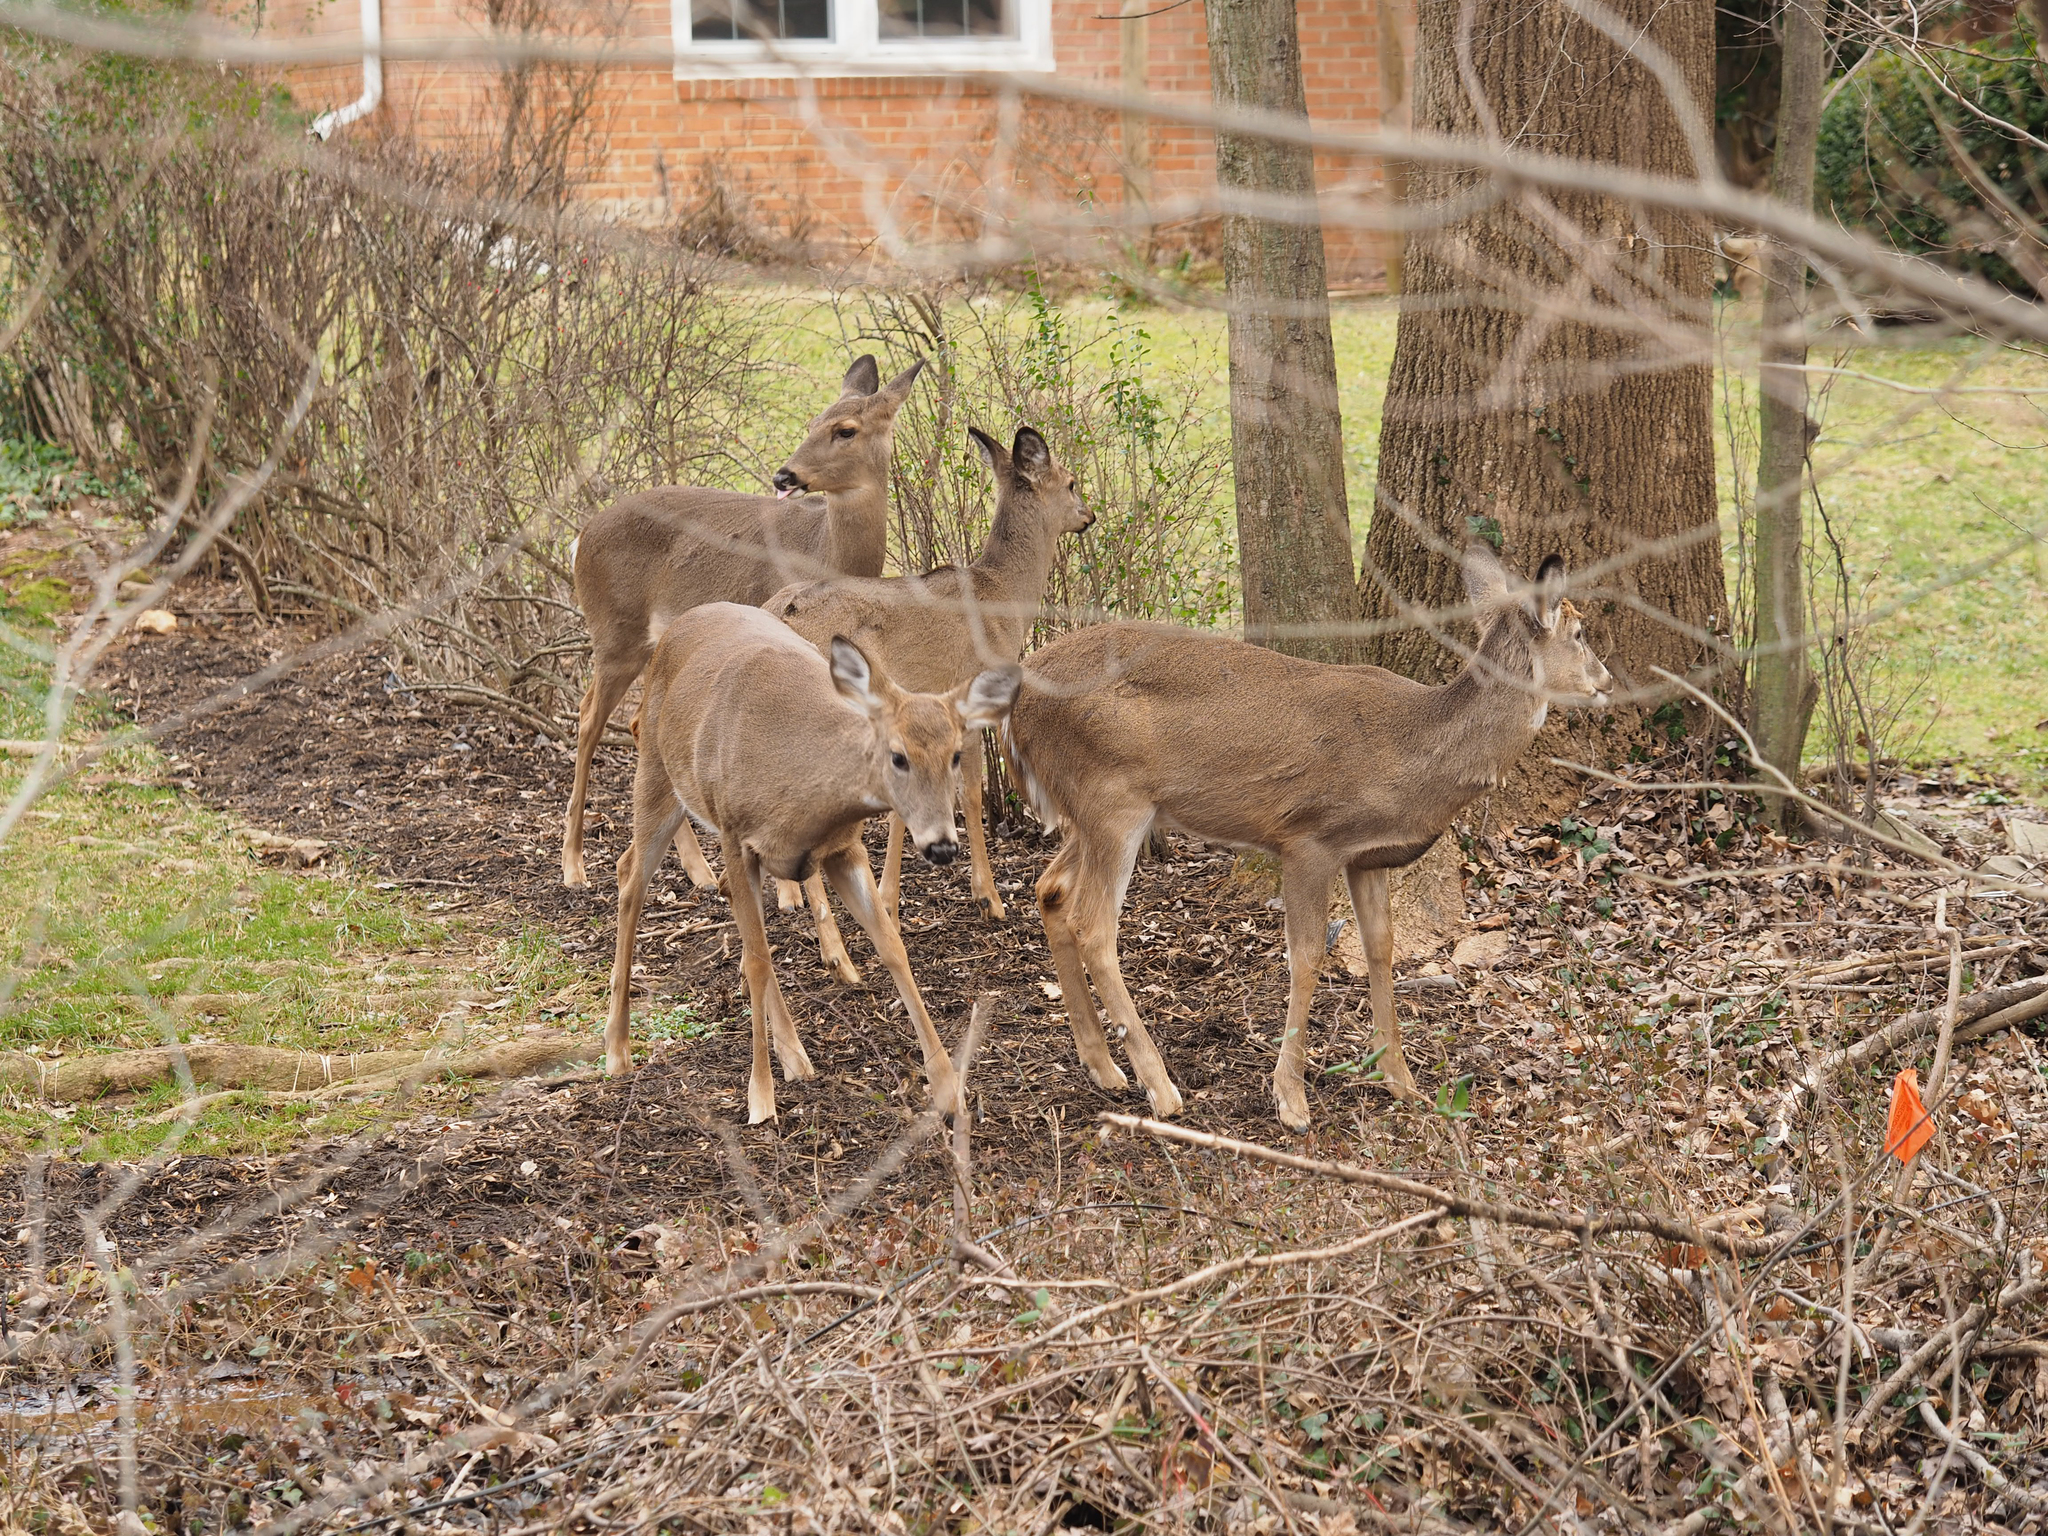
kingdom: Animalia
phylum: Chordata
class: Mammalia
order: Artiodactyla
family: Cervidae
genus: Odocoileus
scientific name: Odocoileus virginianus
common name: White-tailed deer
